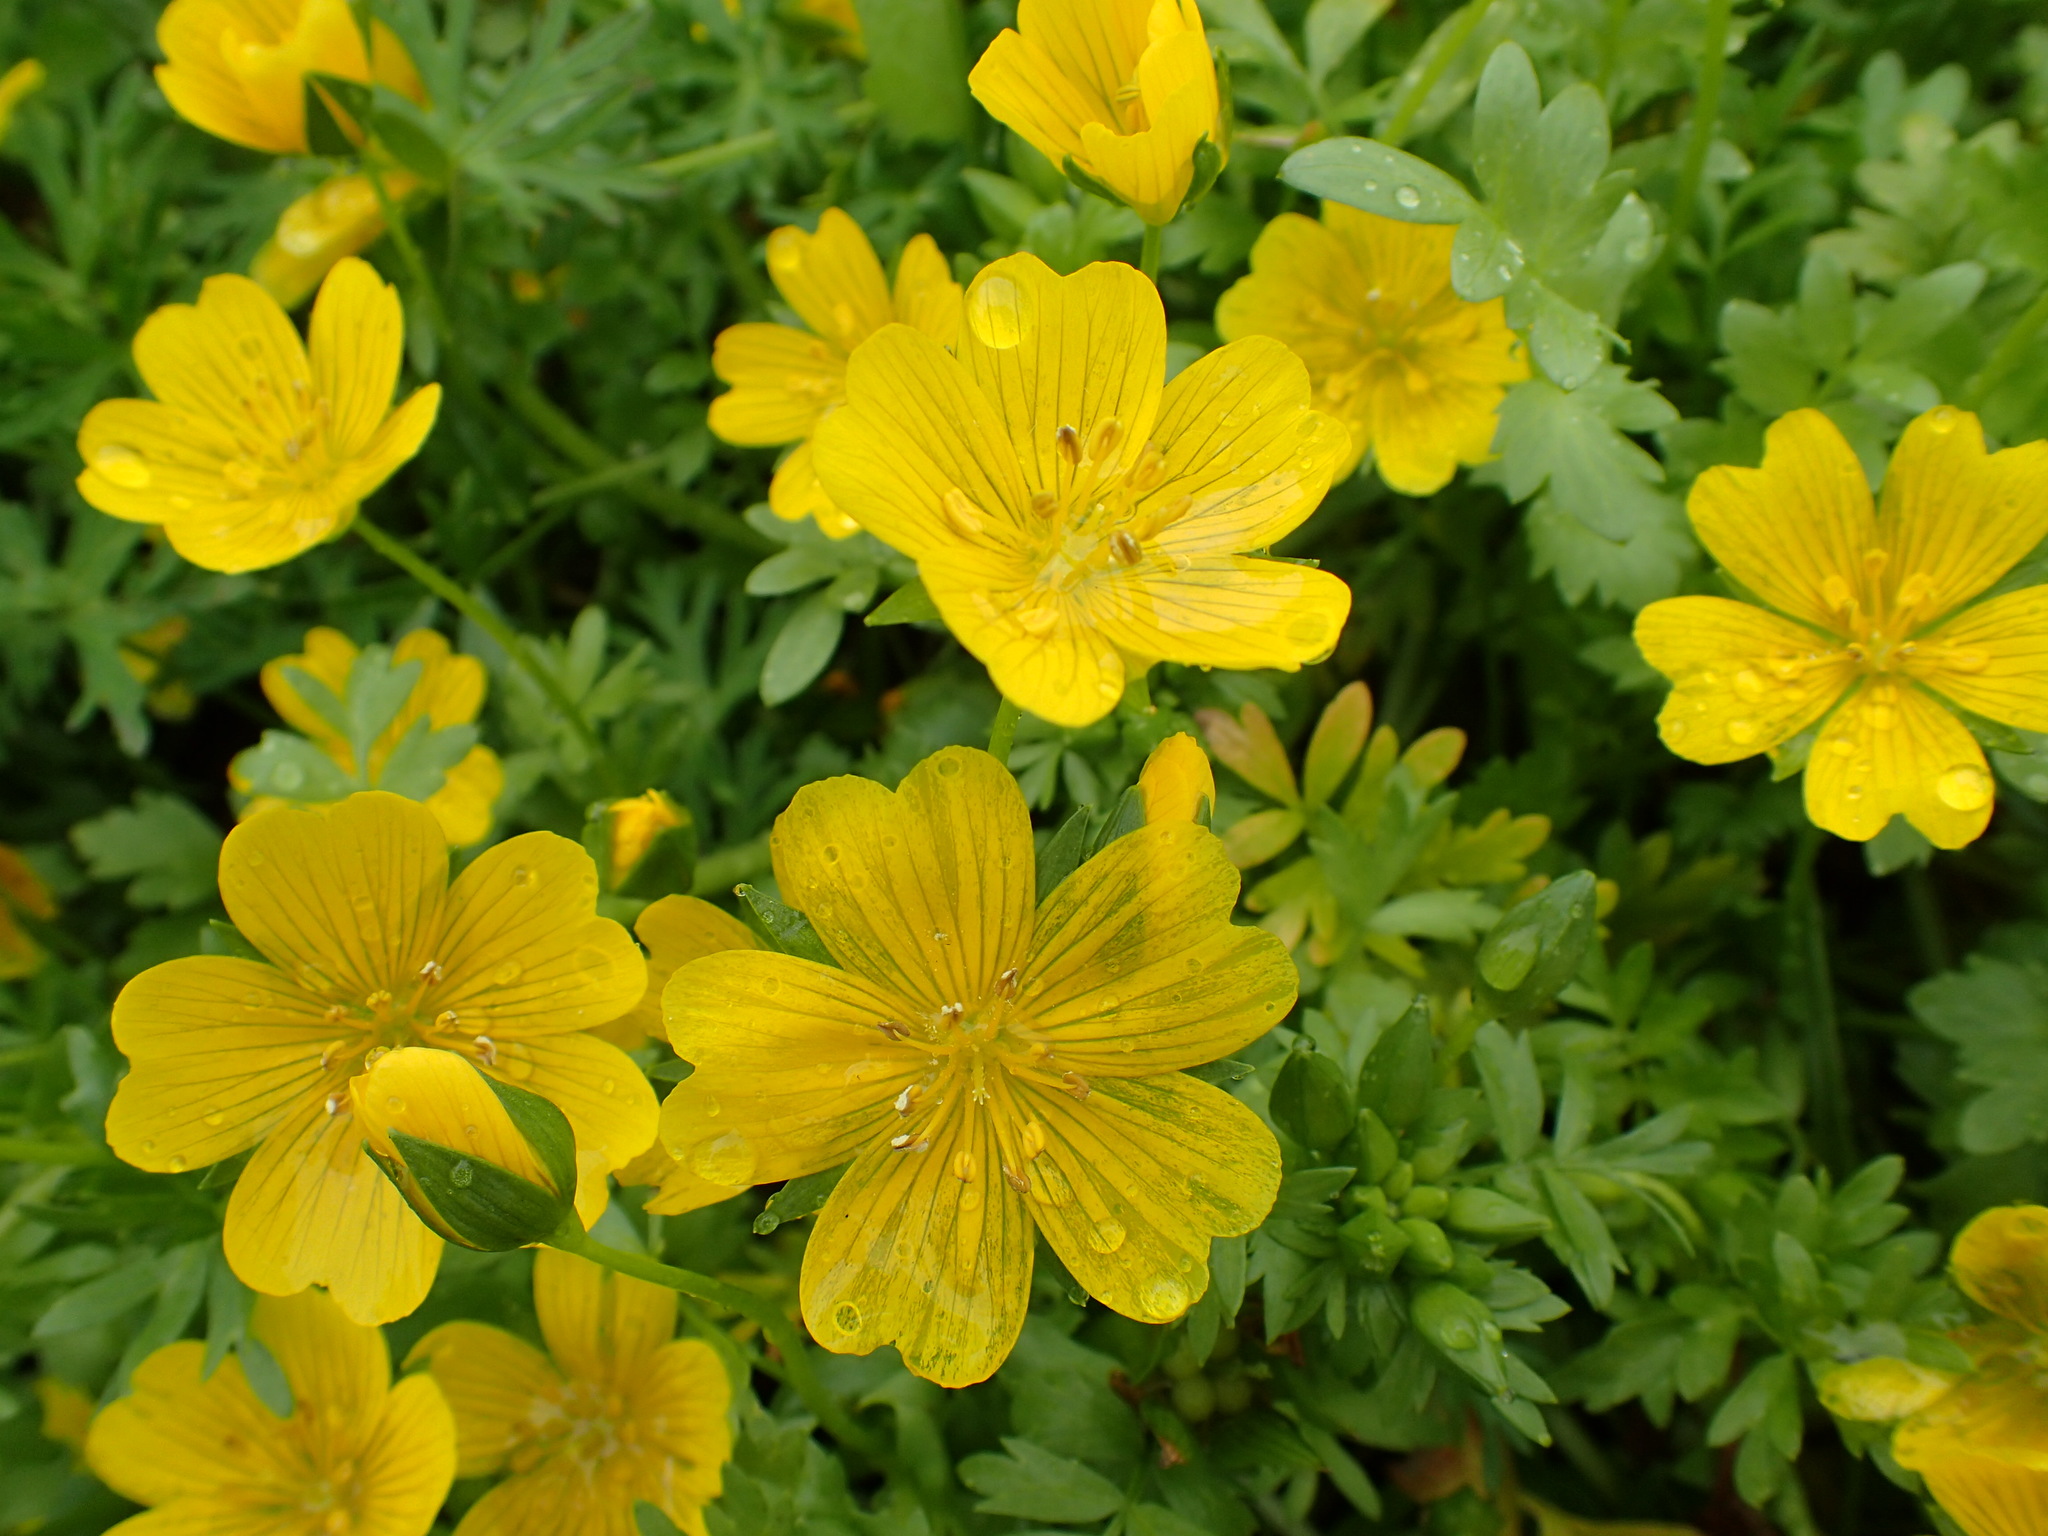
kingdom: Plantae
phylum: Tracheophyta
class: Magnoliopsida
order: Brassicales
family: Limnanthaceae
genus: Limnanthes
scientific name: Limnanthes douglasii
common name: Meadow-foam
